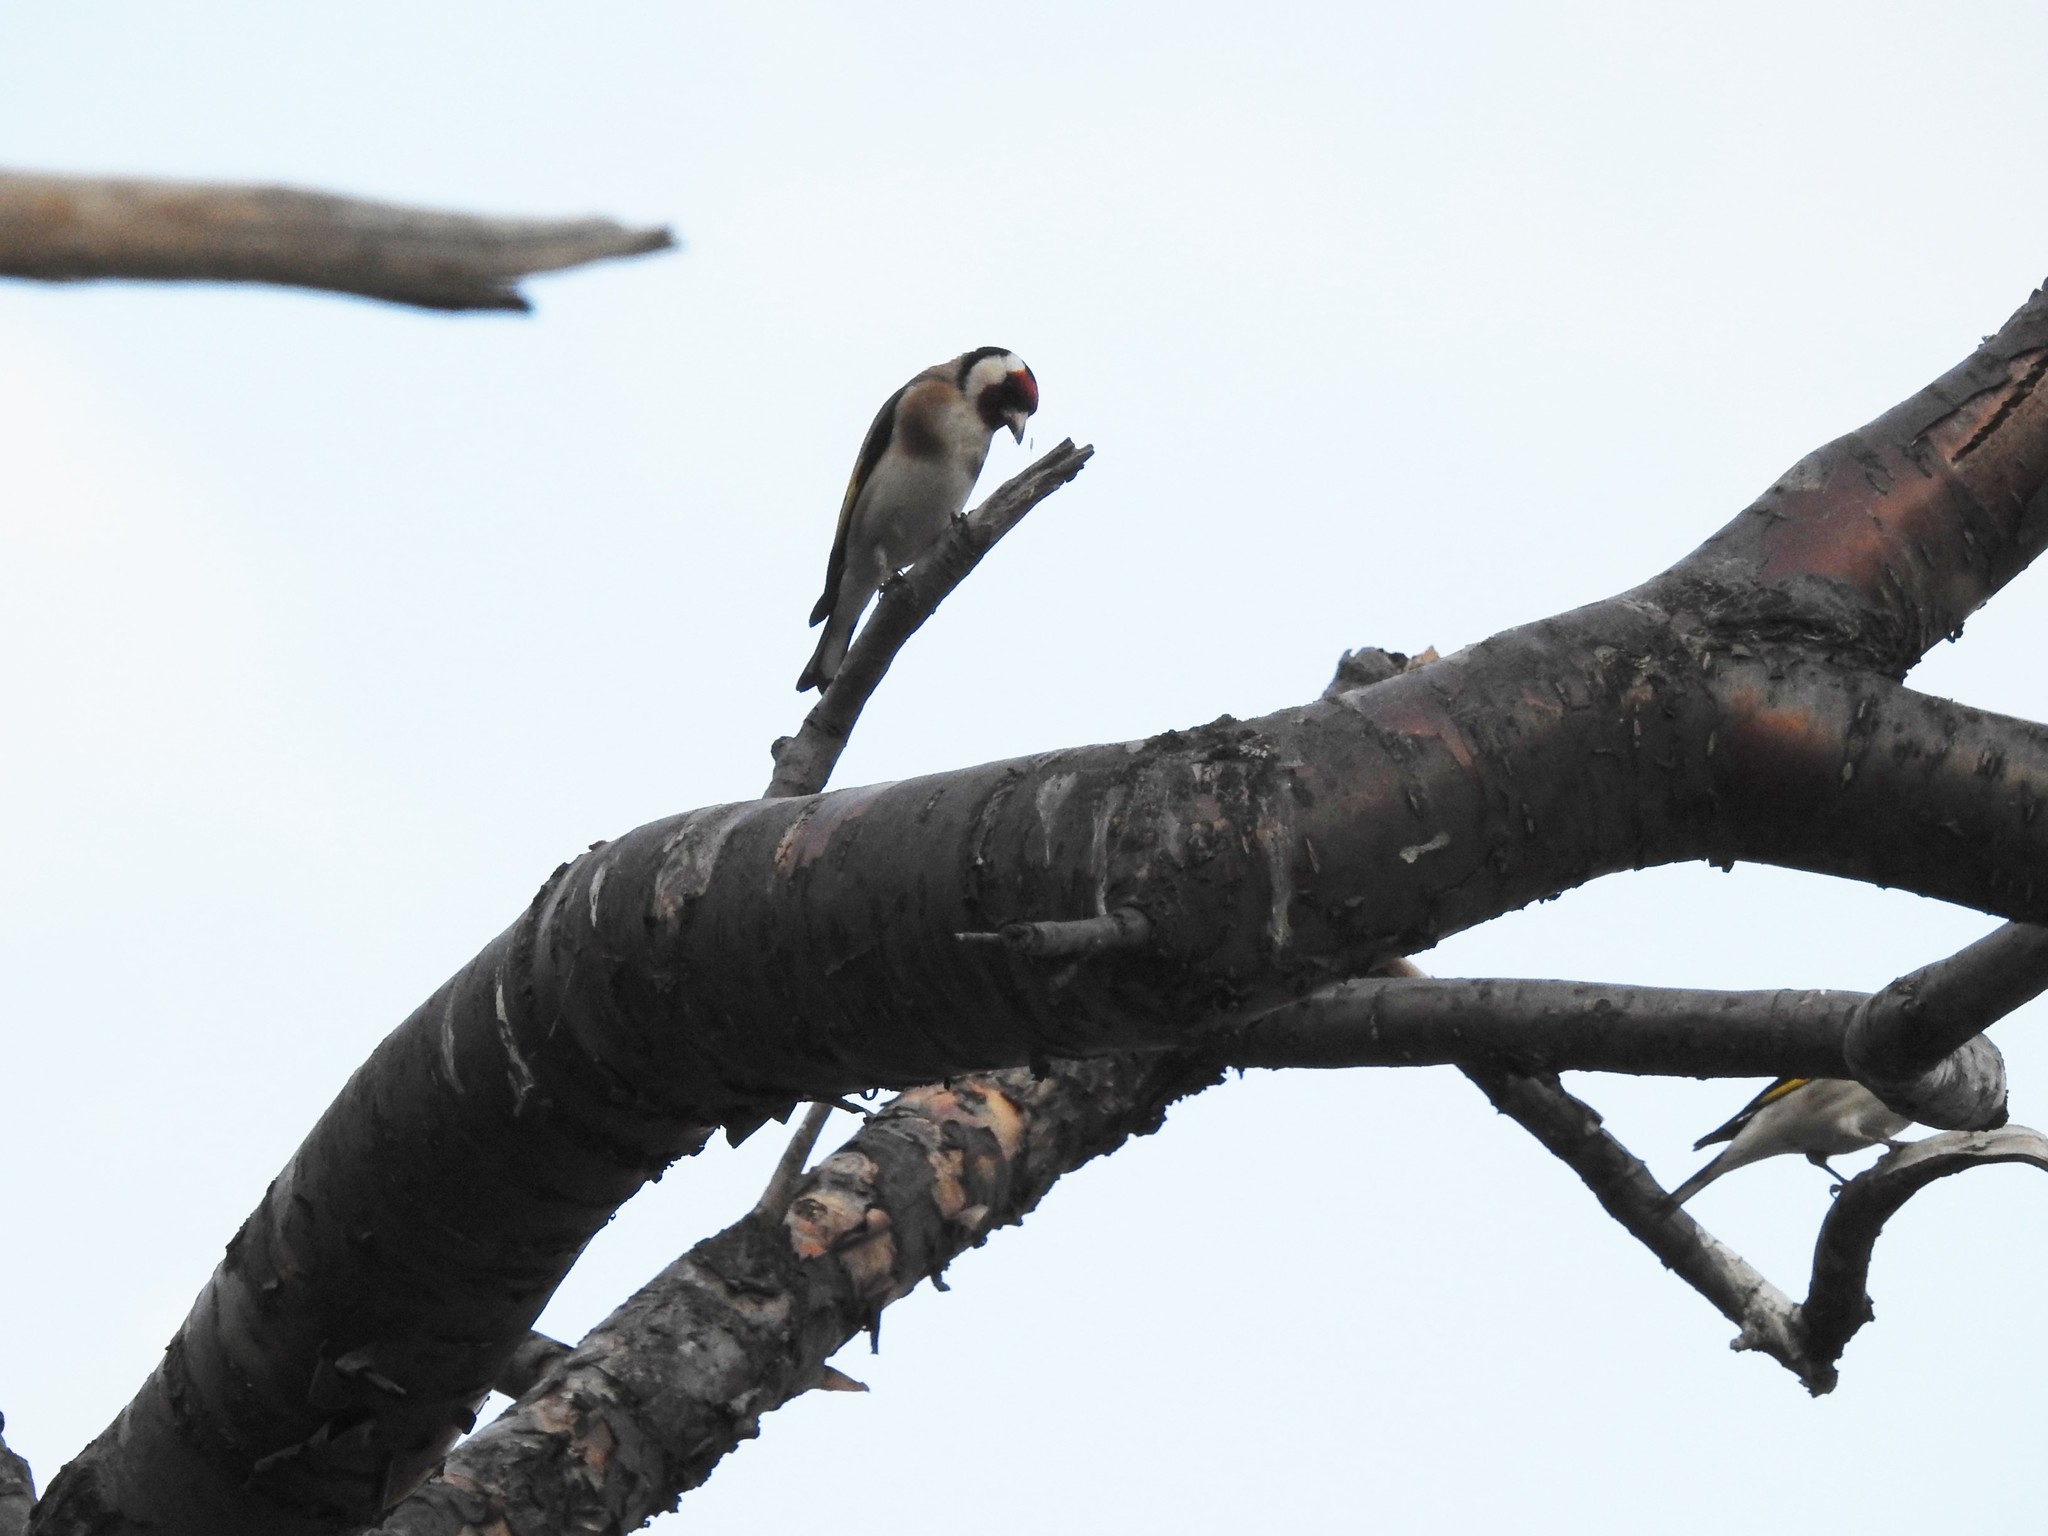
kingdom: Animalia
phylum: Chordata
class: Aves
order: Passeriformes
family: Fringillidae
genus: Carduelis
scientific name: Carduelis carduelis
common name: European goldfinch
